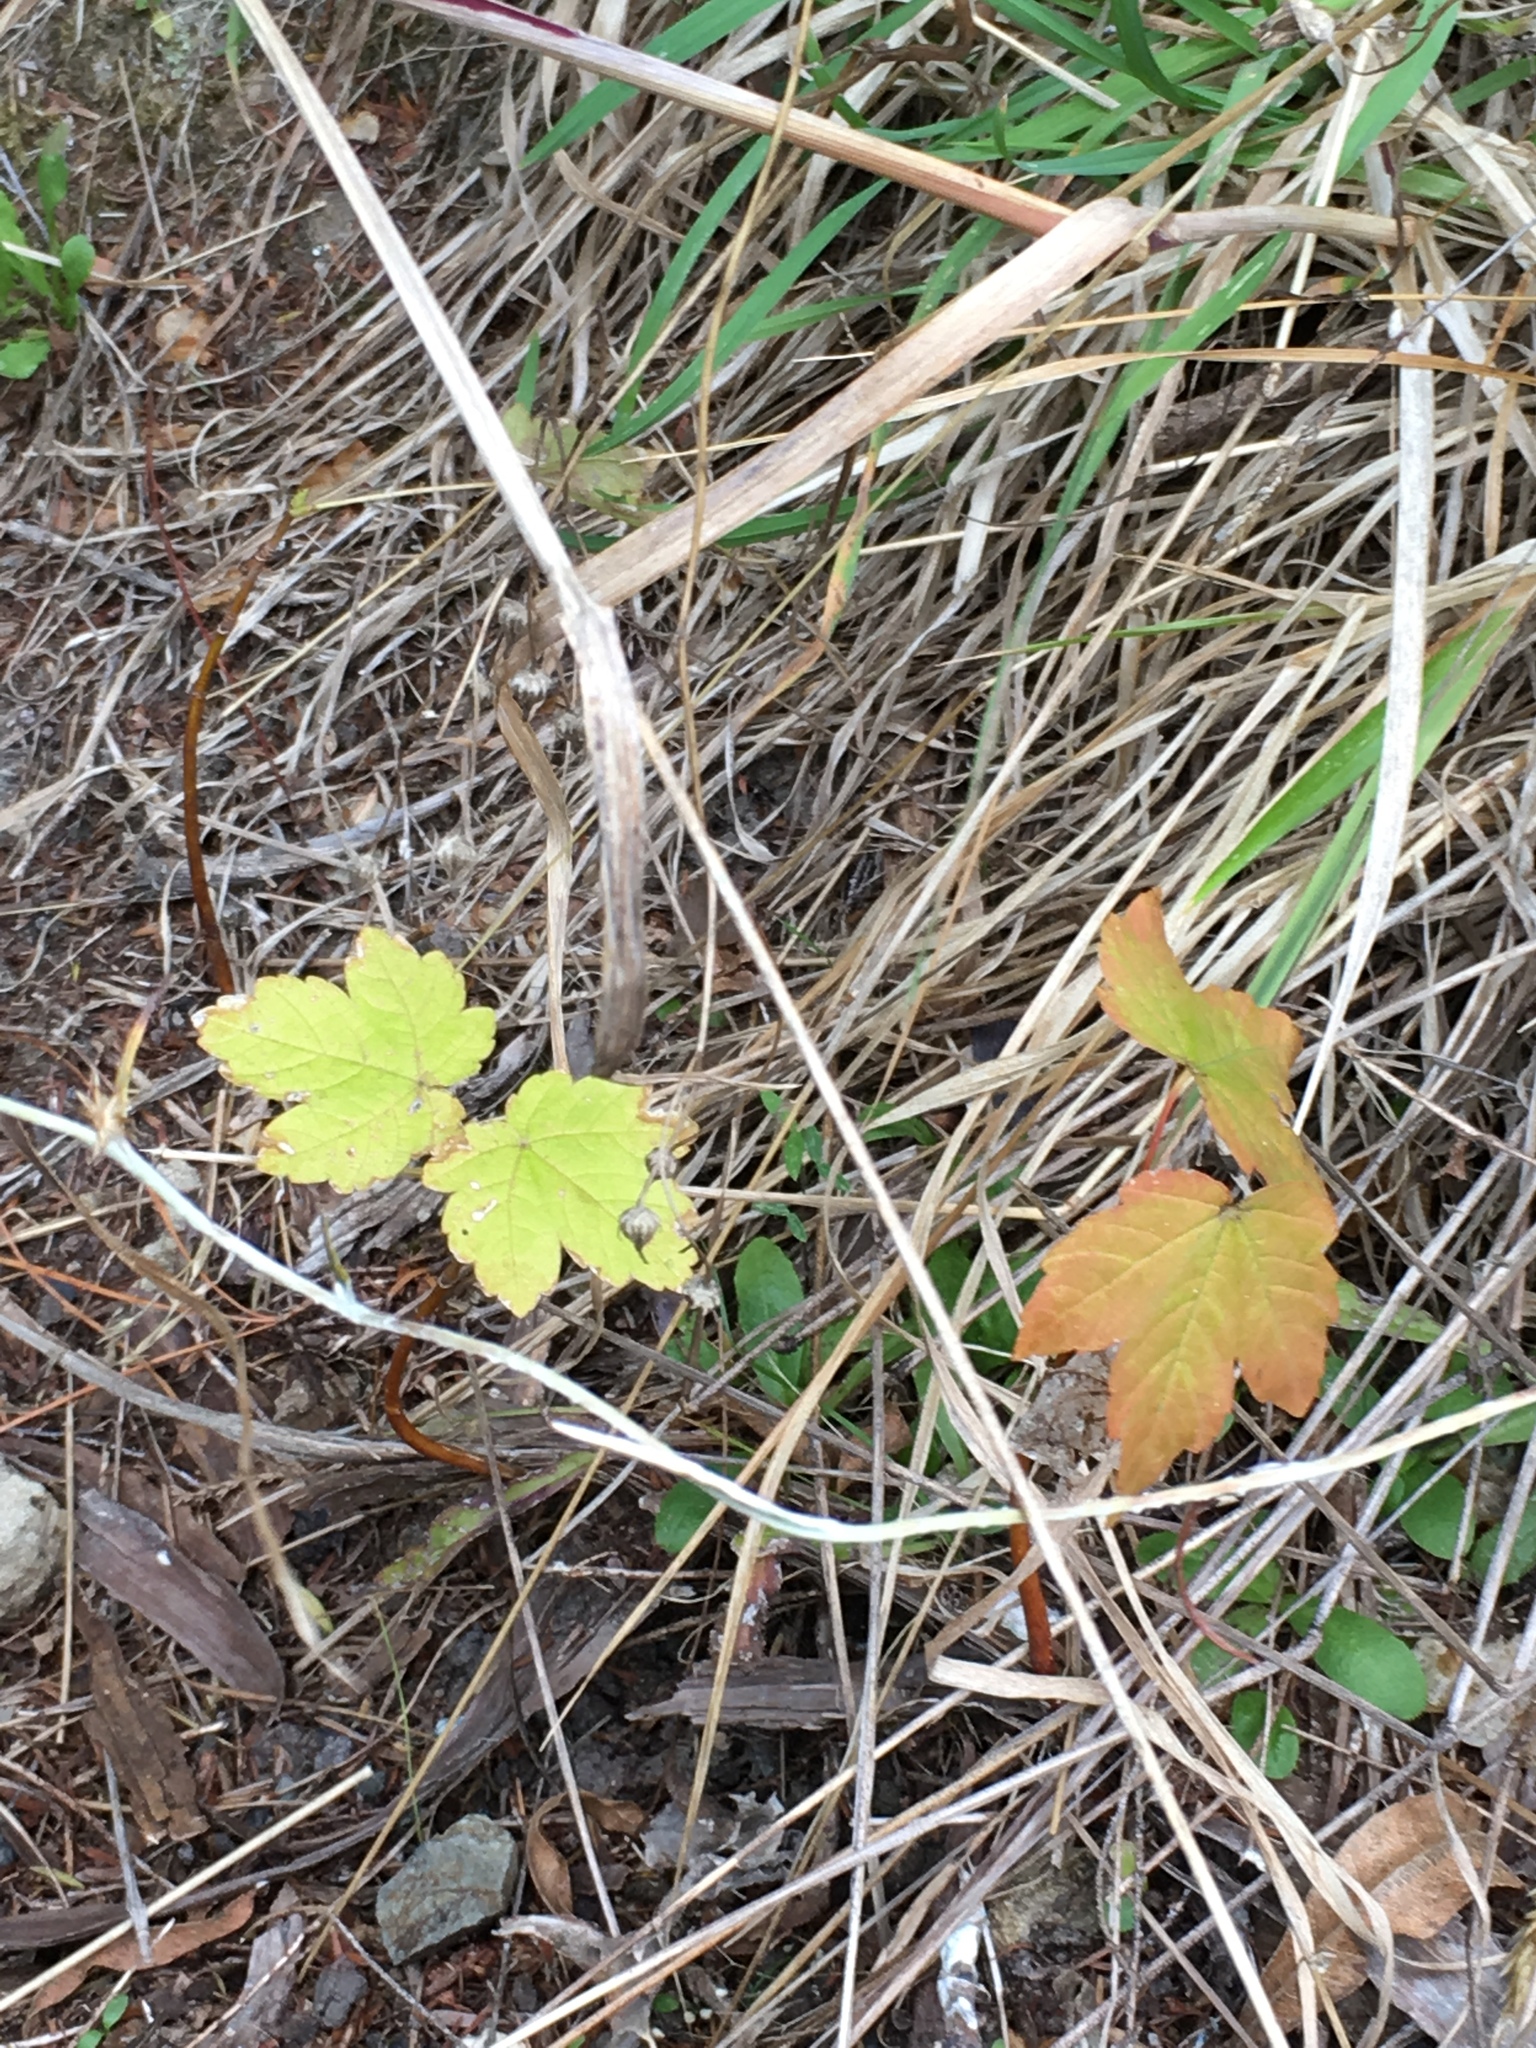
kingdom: Plantae
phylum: Tracheophyta
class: Magnoliopsida
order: Sapindales
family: Sapindaceae
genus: Acer
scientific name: Acer pseudoplatanus
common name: Sycamore
